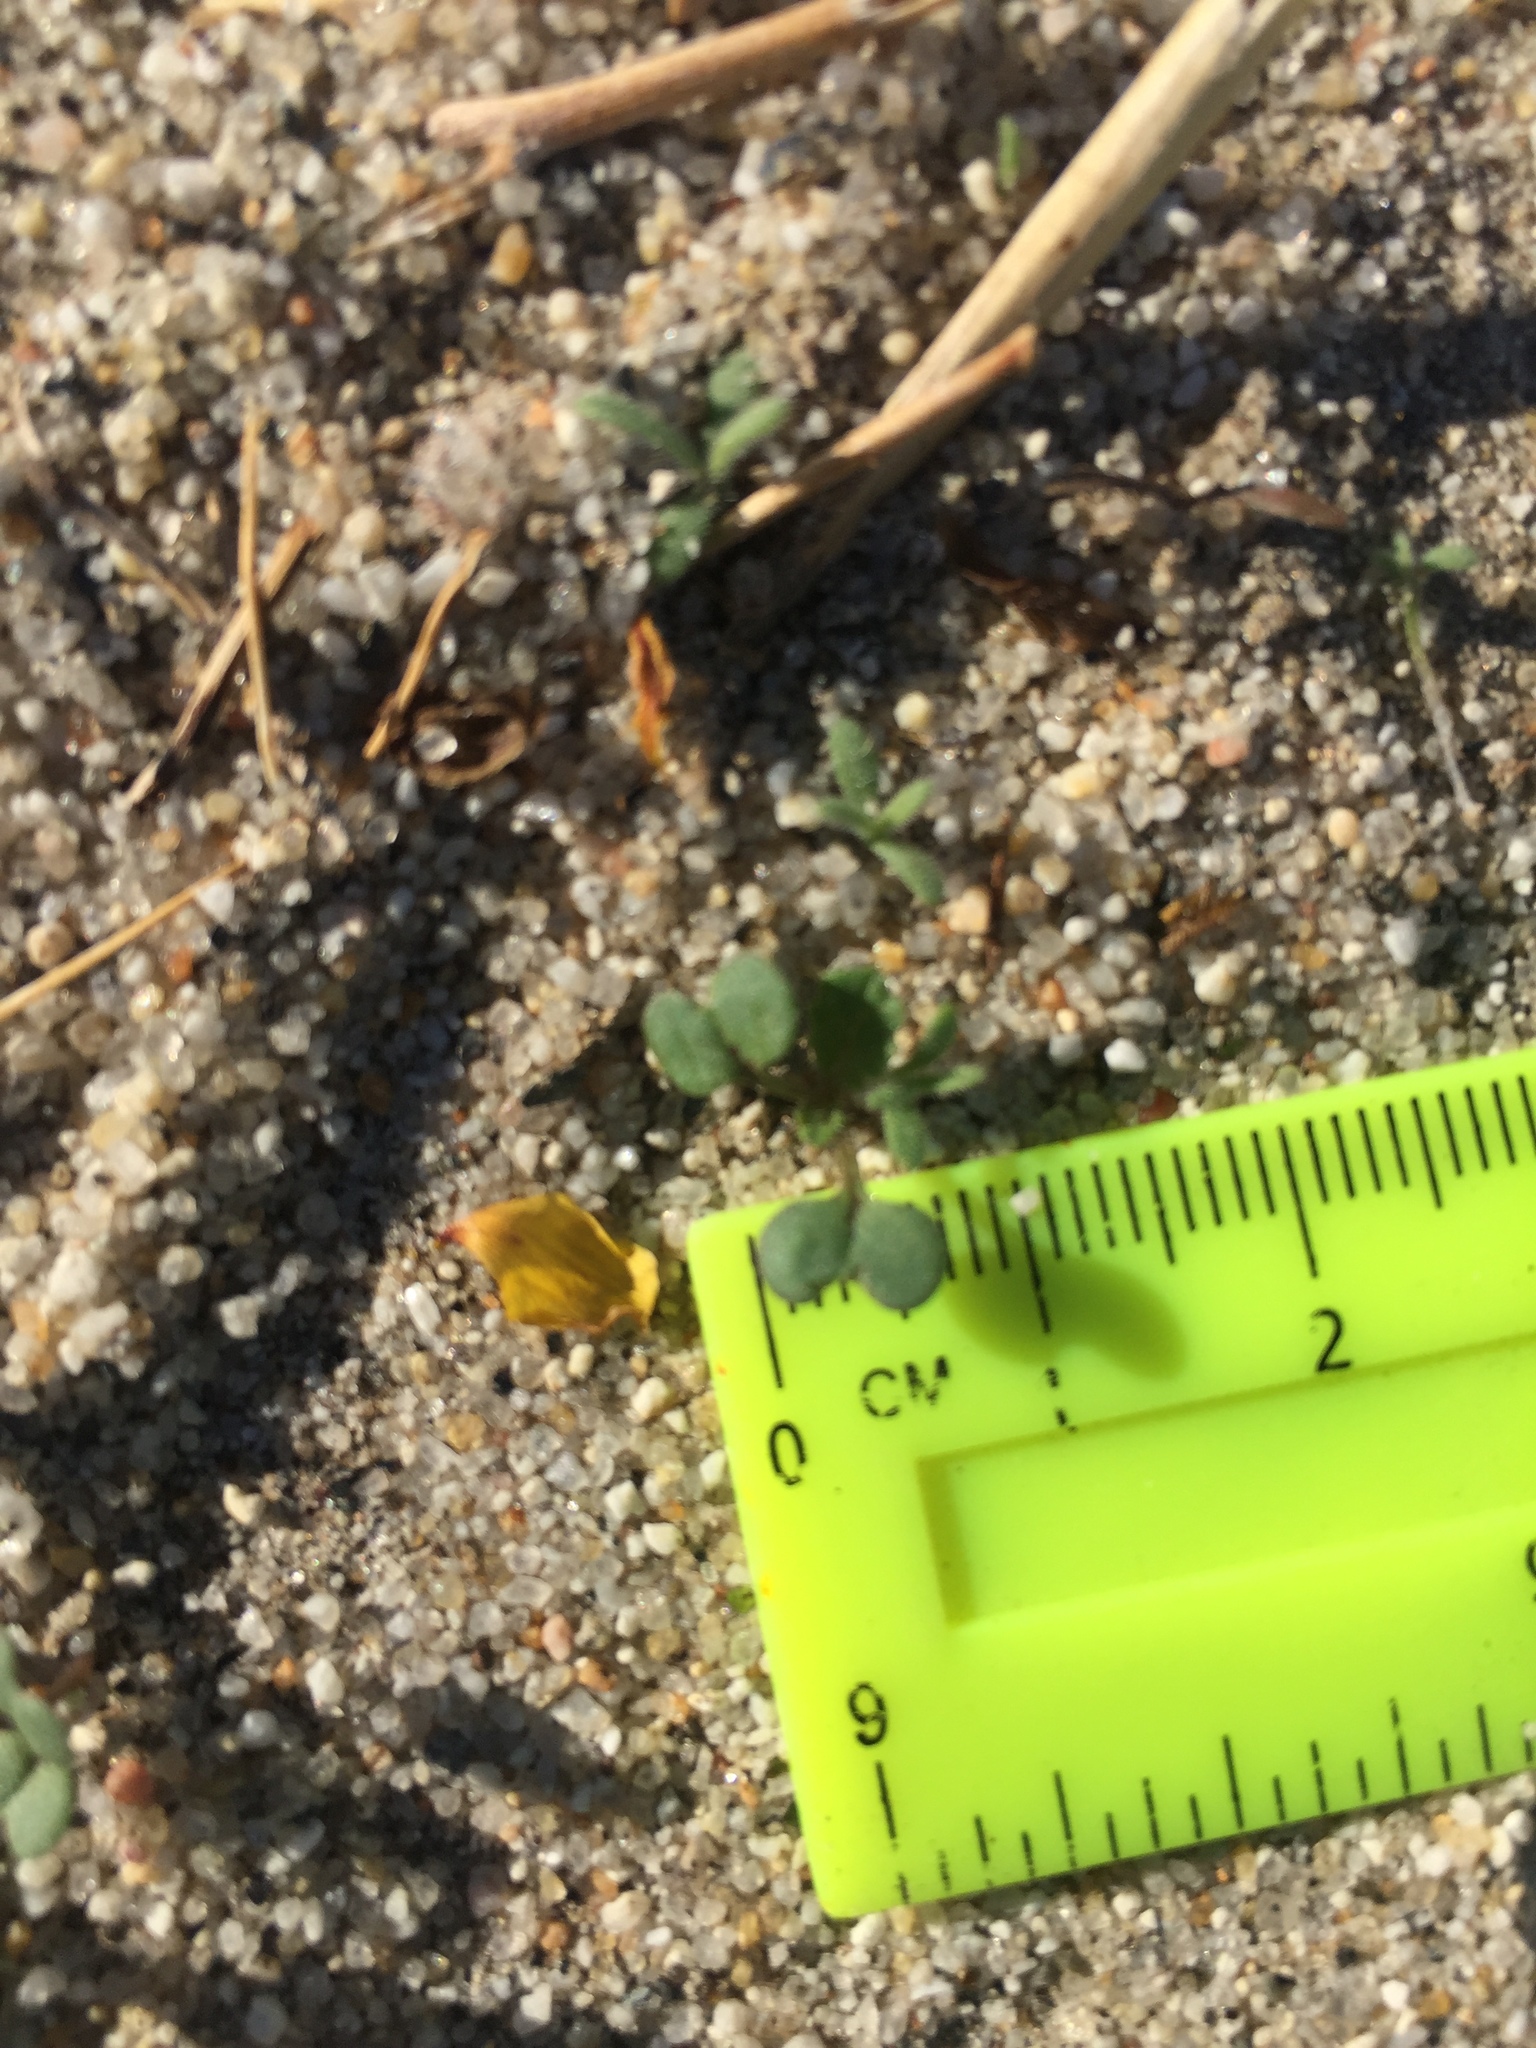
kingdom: Plantae
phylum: Tracheophyta
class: Magnoliopsida
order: Brassicales
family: Brassicaceae
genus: Brassica
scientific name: Brassica tournefortii
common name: Pale cabbage
